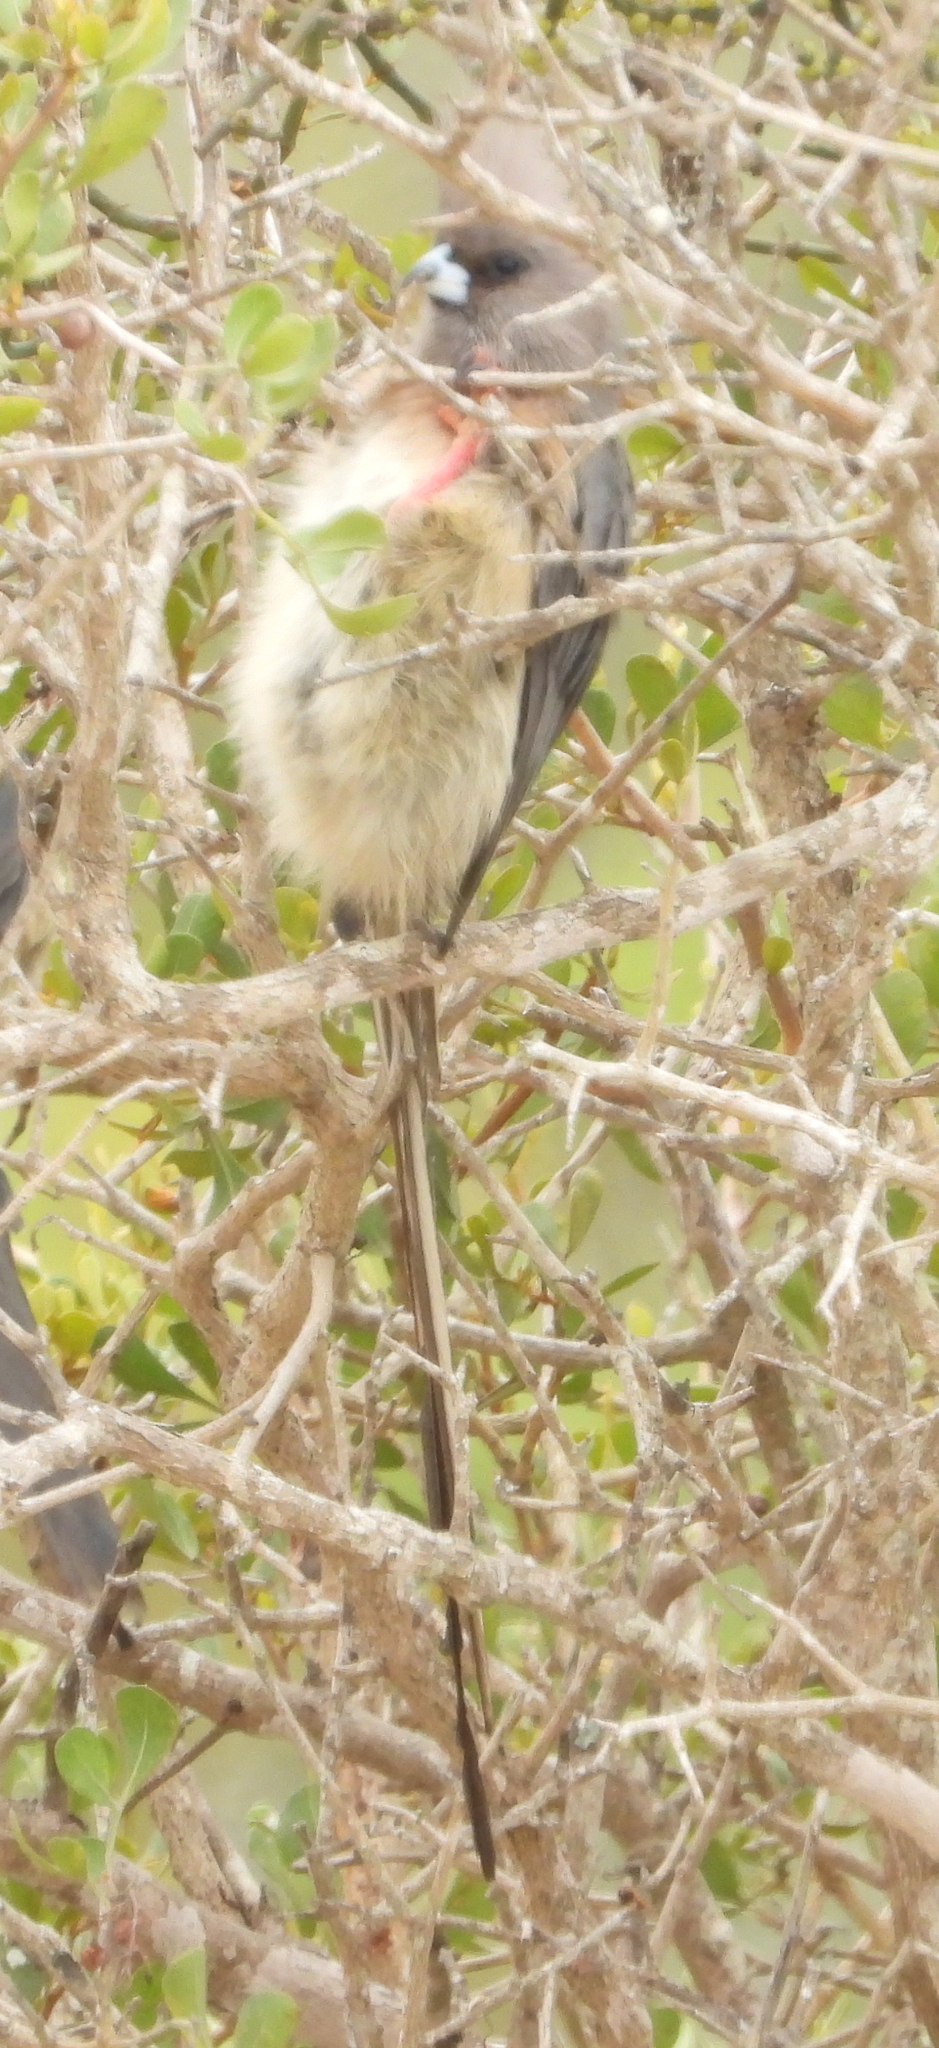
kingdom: Animalia
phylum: Chordata
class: Aves
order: Coliiformes
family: Coliidae
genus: Colius
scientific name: Colius colius
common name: White-backed mousebird
